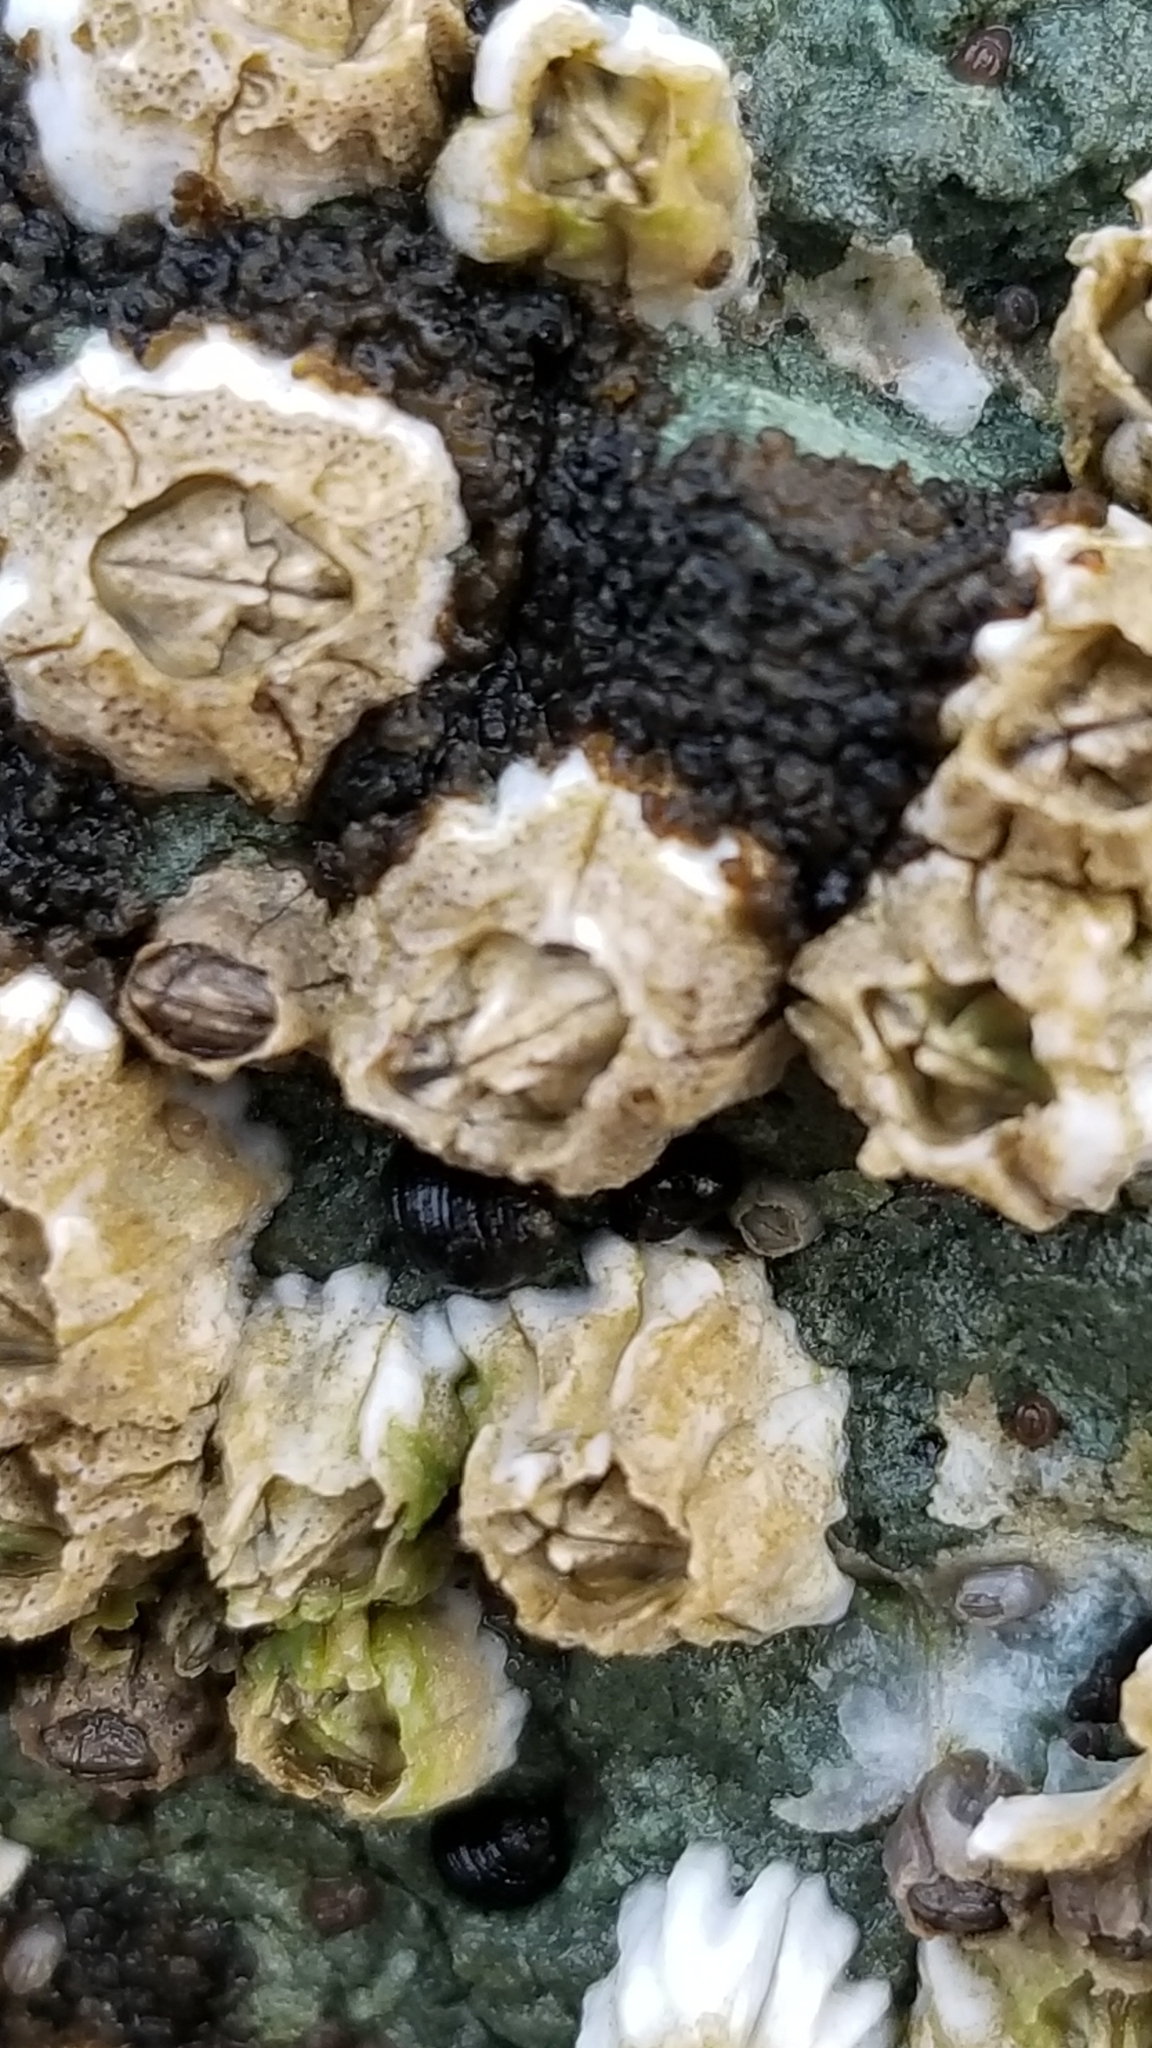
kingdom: Animalia
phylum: Arthropoda
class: Maxillopoda
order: Sessilia
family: Balanidae
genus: Balanus
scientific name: Balanus glandula
